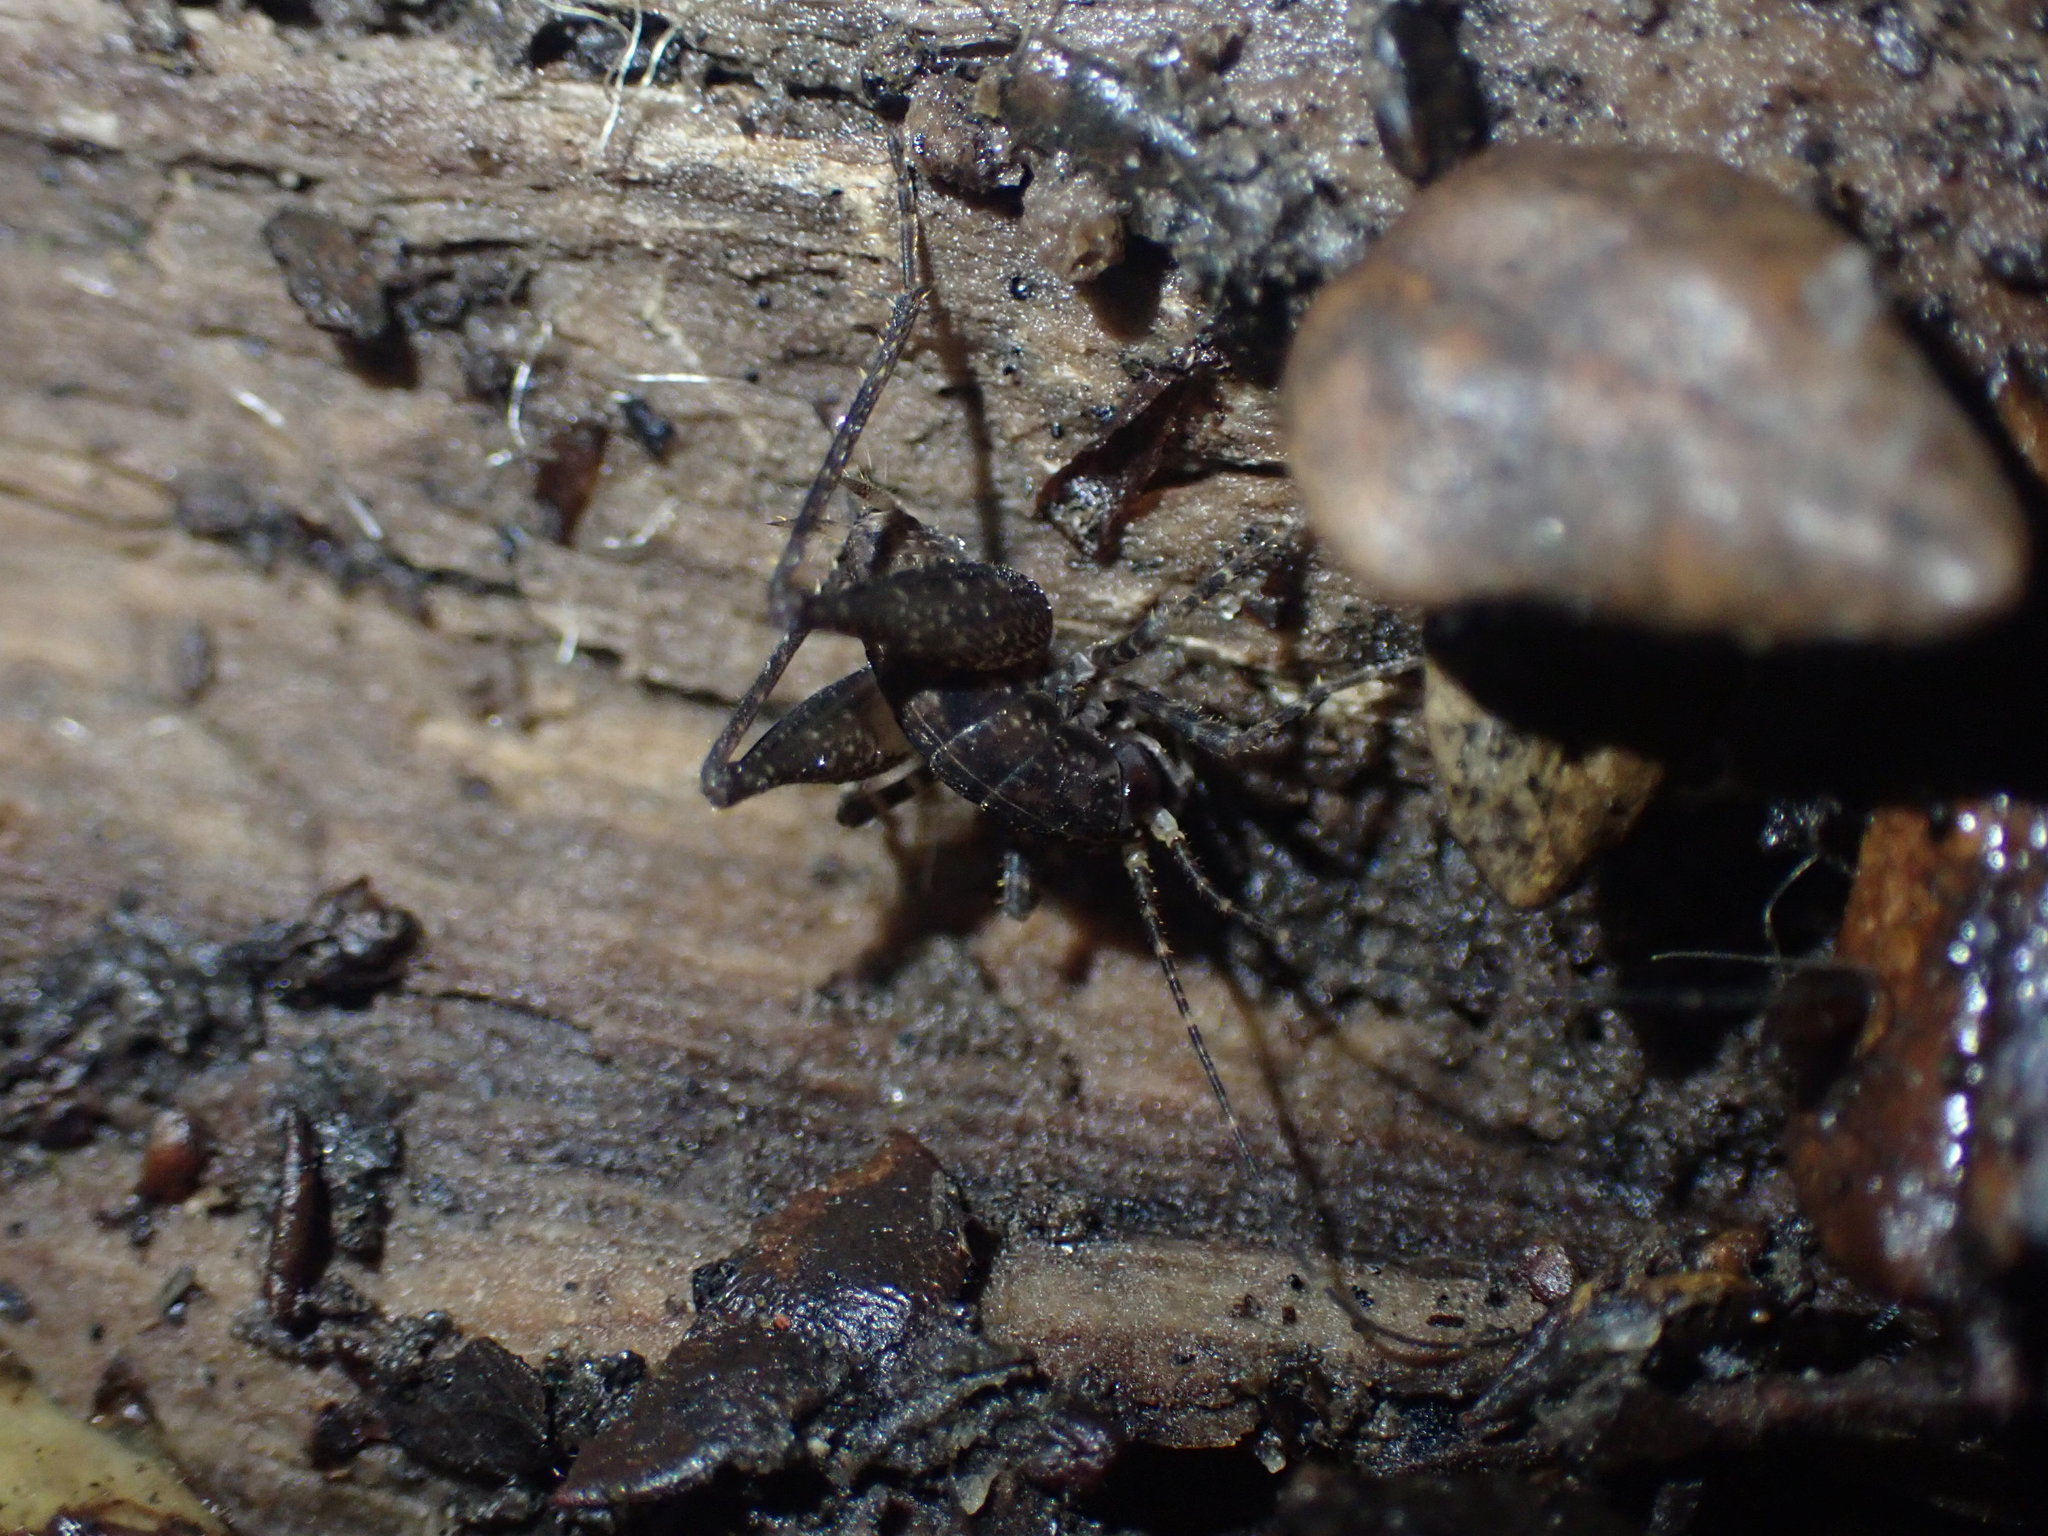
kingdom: Animalia
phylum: Arthropoda
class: Insecta
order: Orthoptera
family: Rhaphidophoridae
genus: Pleioplectron
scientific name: Pleioplectron hudsoni
